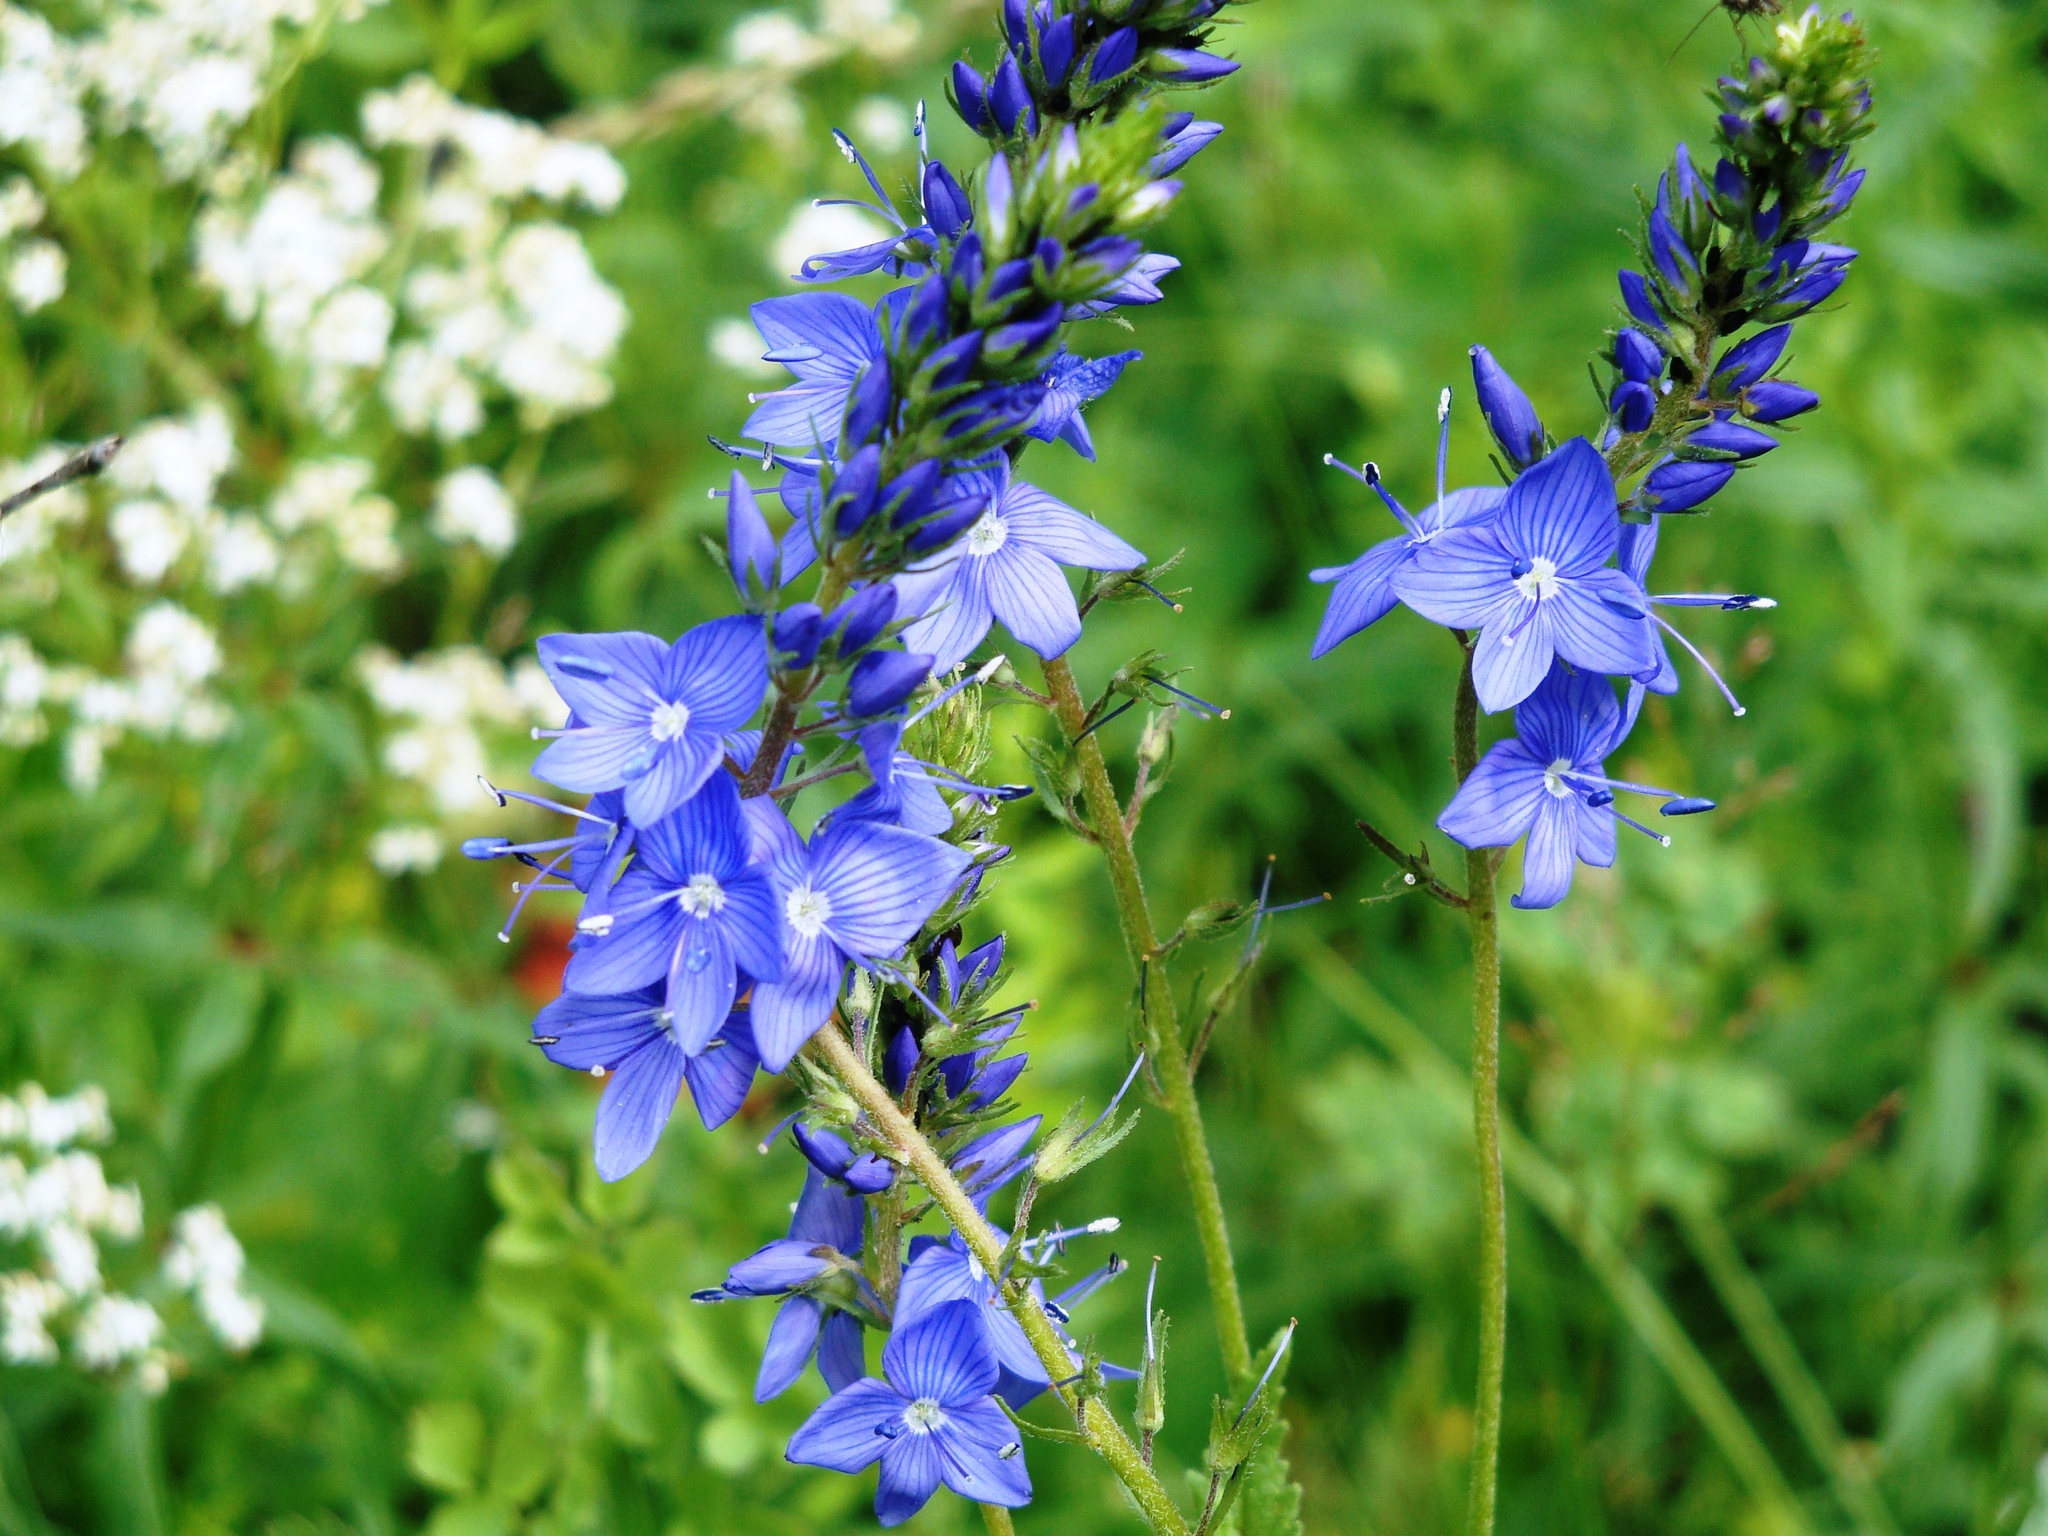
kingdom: Plantae
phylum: Tracheophyta
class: Magnoliopsida
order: Lamiales
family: Plantaginaceae
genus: Veronica
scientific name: Veronica teucrium
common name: Large speedwell
